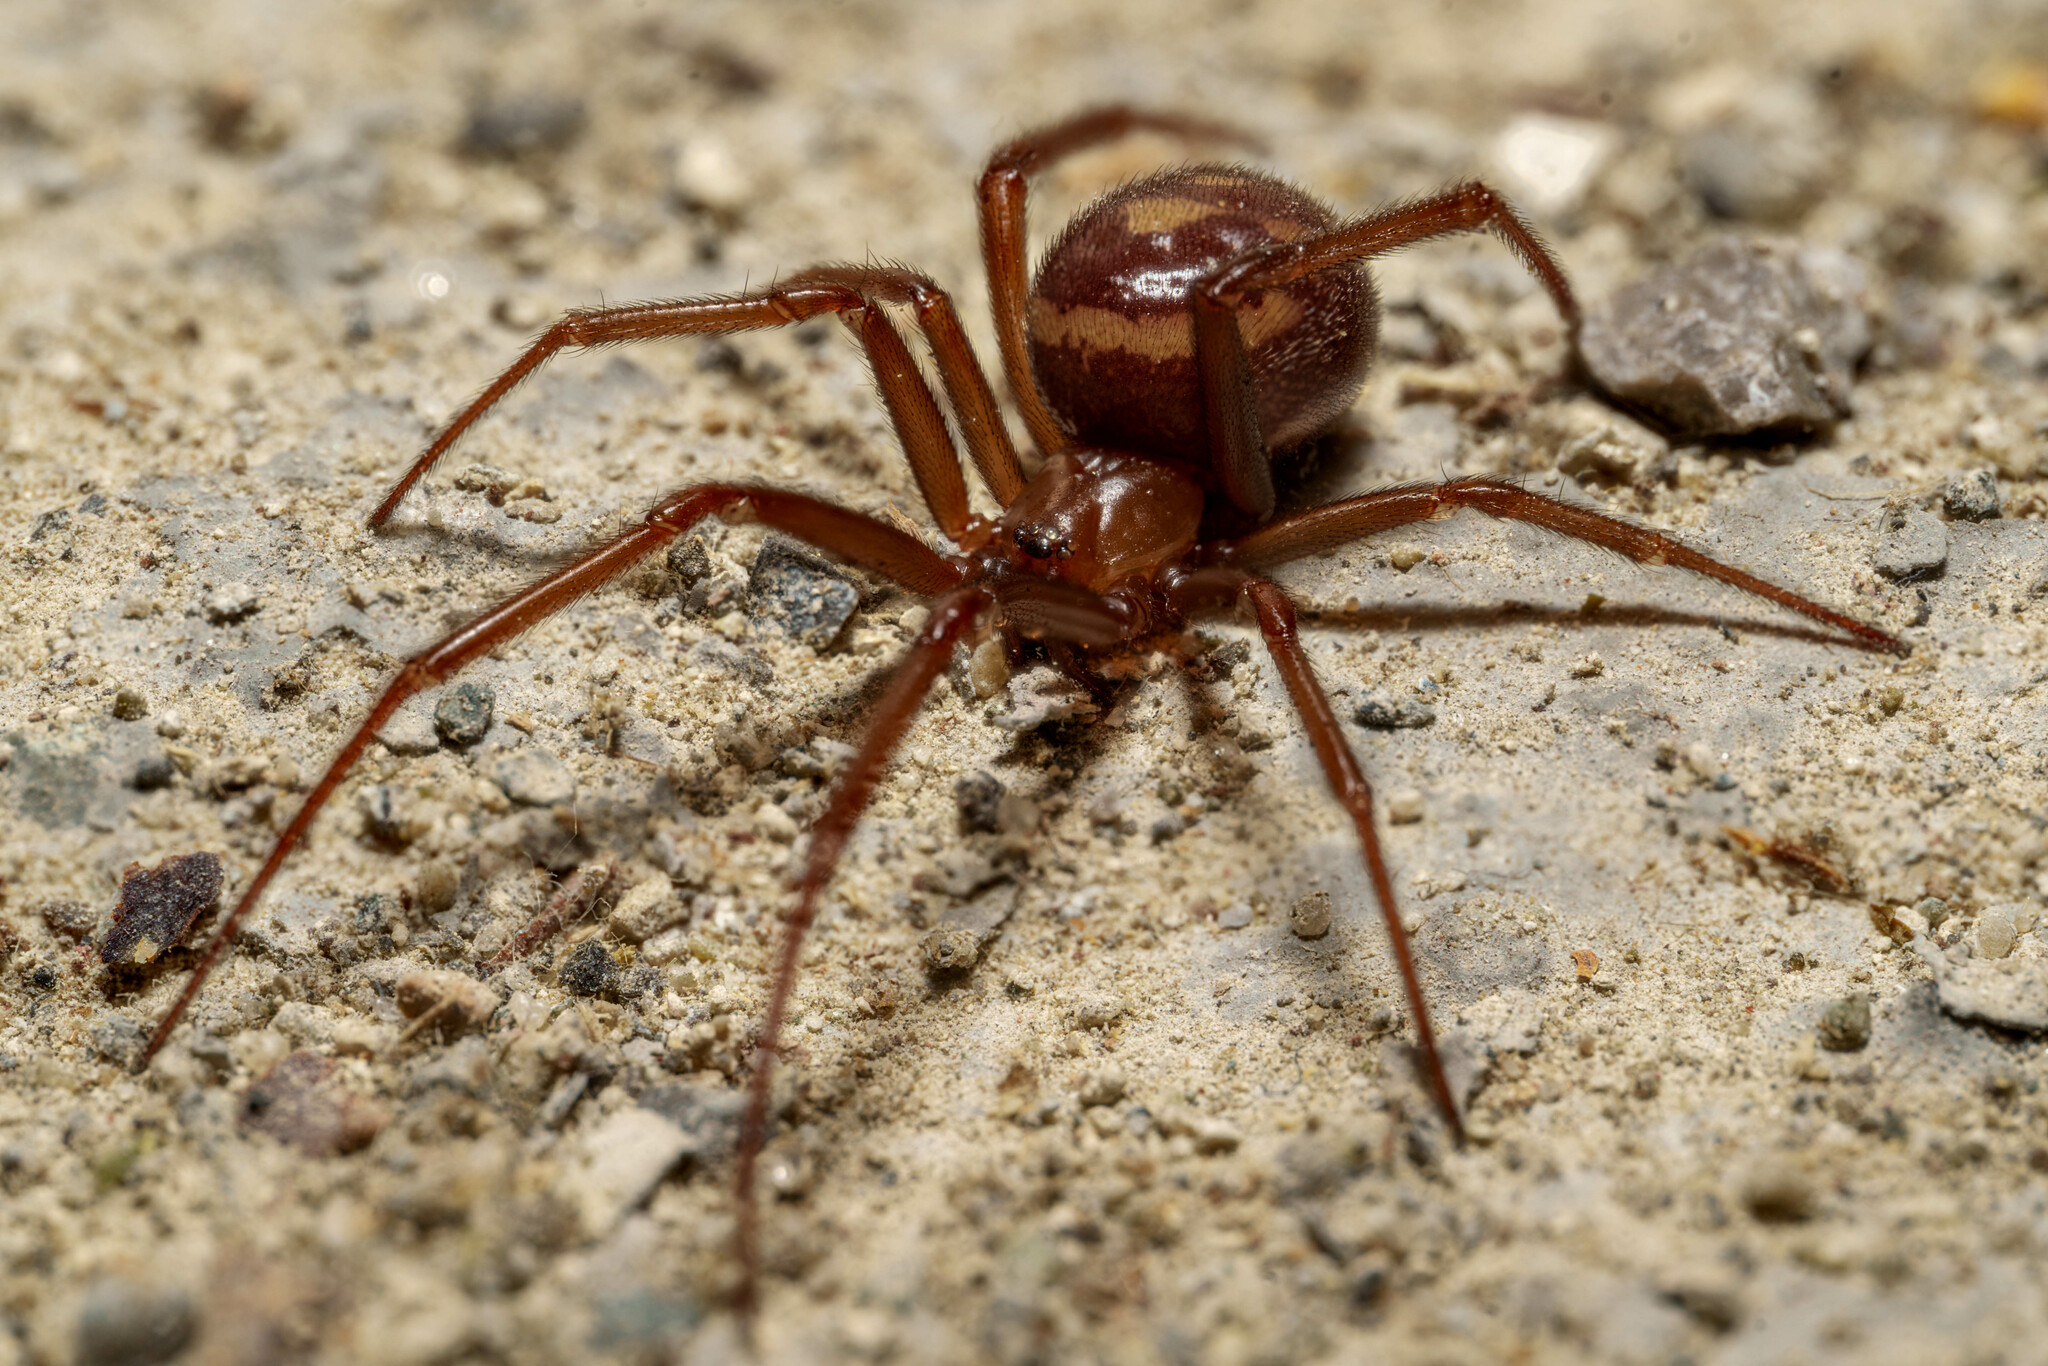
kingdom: Animalia
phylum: Arthropoda
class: Arachnida
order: Araneae
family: Theridiidae
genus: Steatoda
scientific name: Steatoda grossa
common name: False black widow
